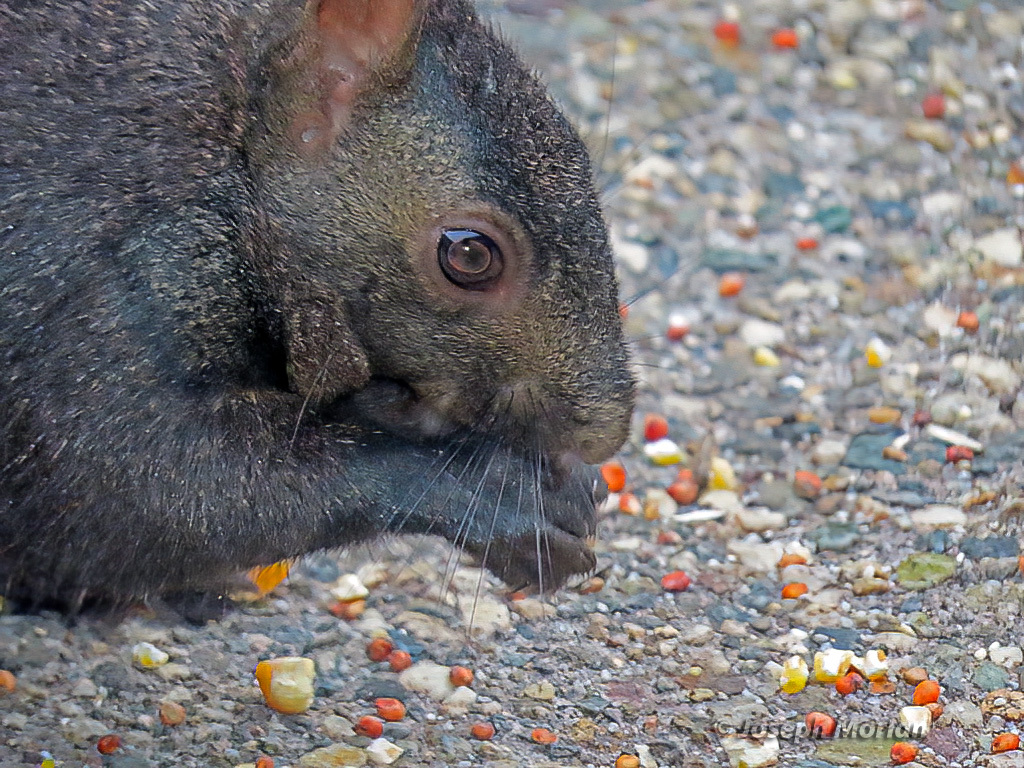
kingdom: Animalia
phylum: Chordata
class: Mammalia
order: Rodentia
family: Sciuridae
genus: Sciurus
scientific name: Sciurus carolinensis
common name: Eastern gray squirrel
